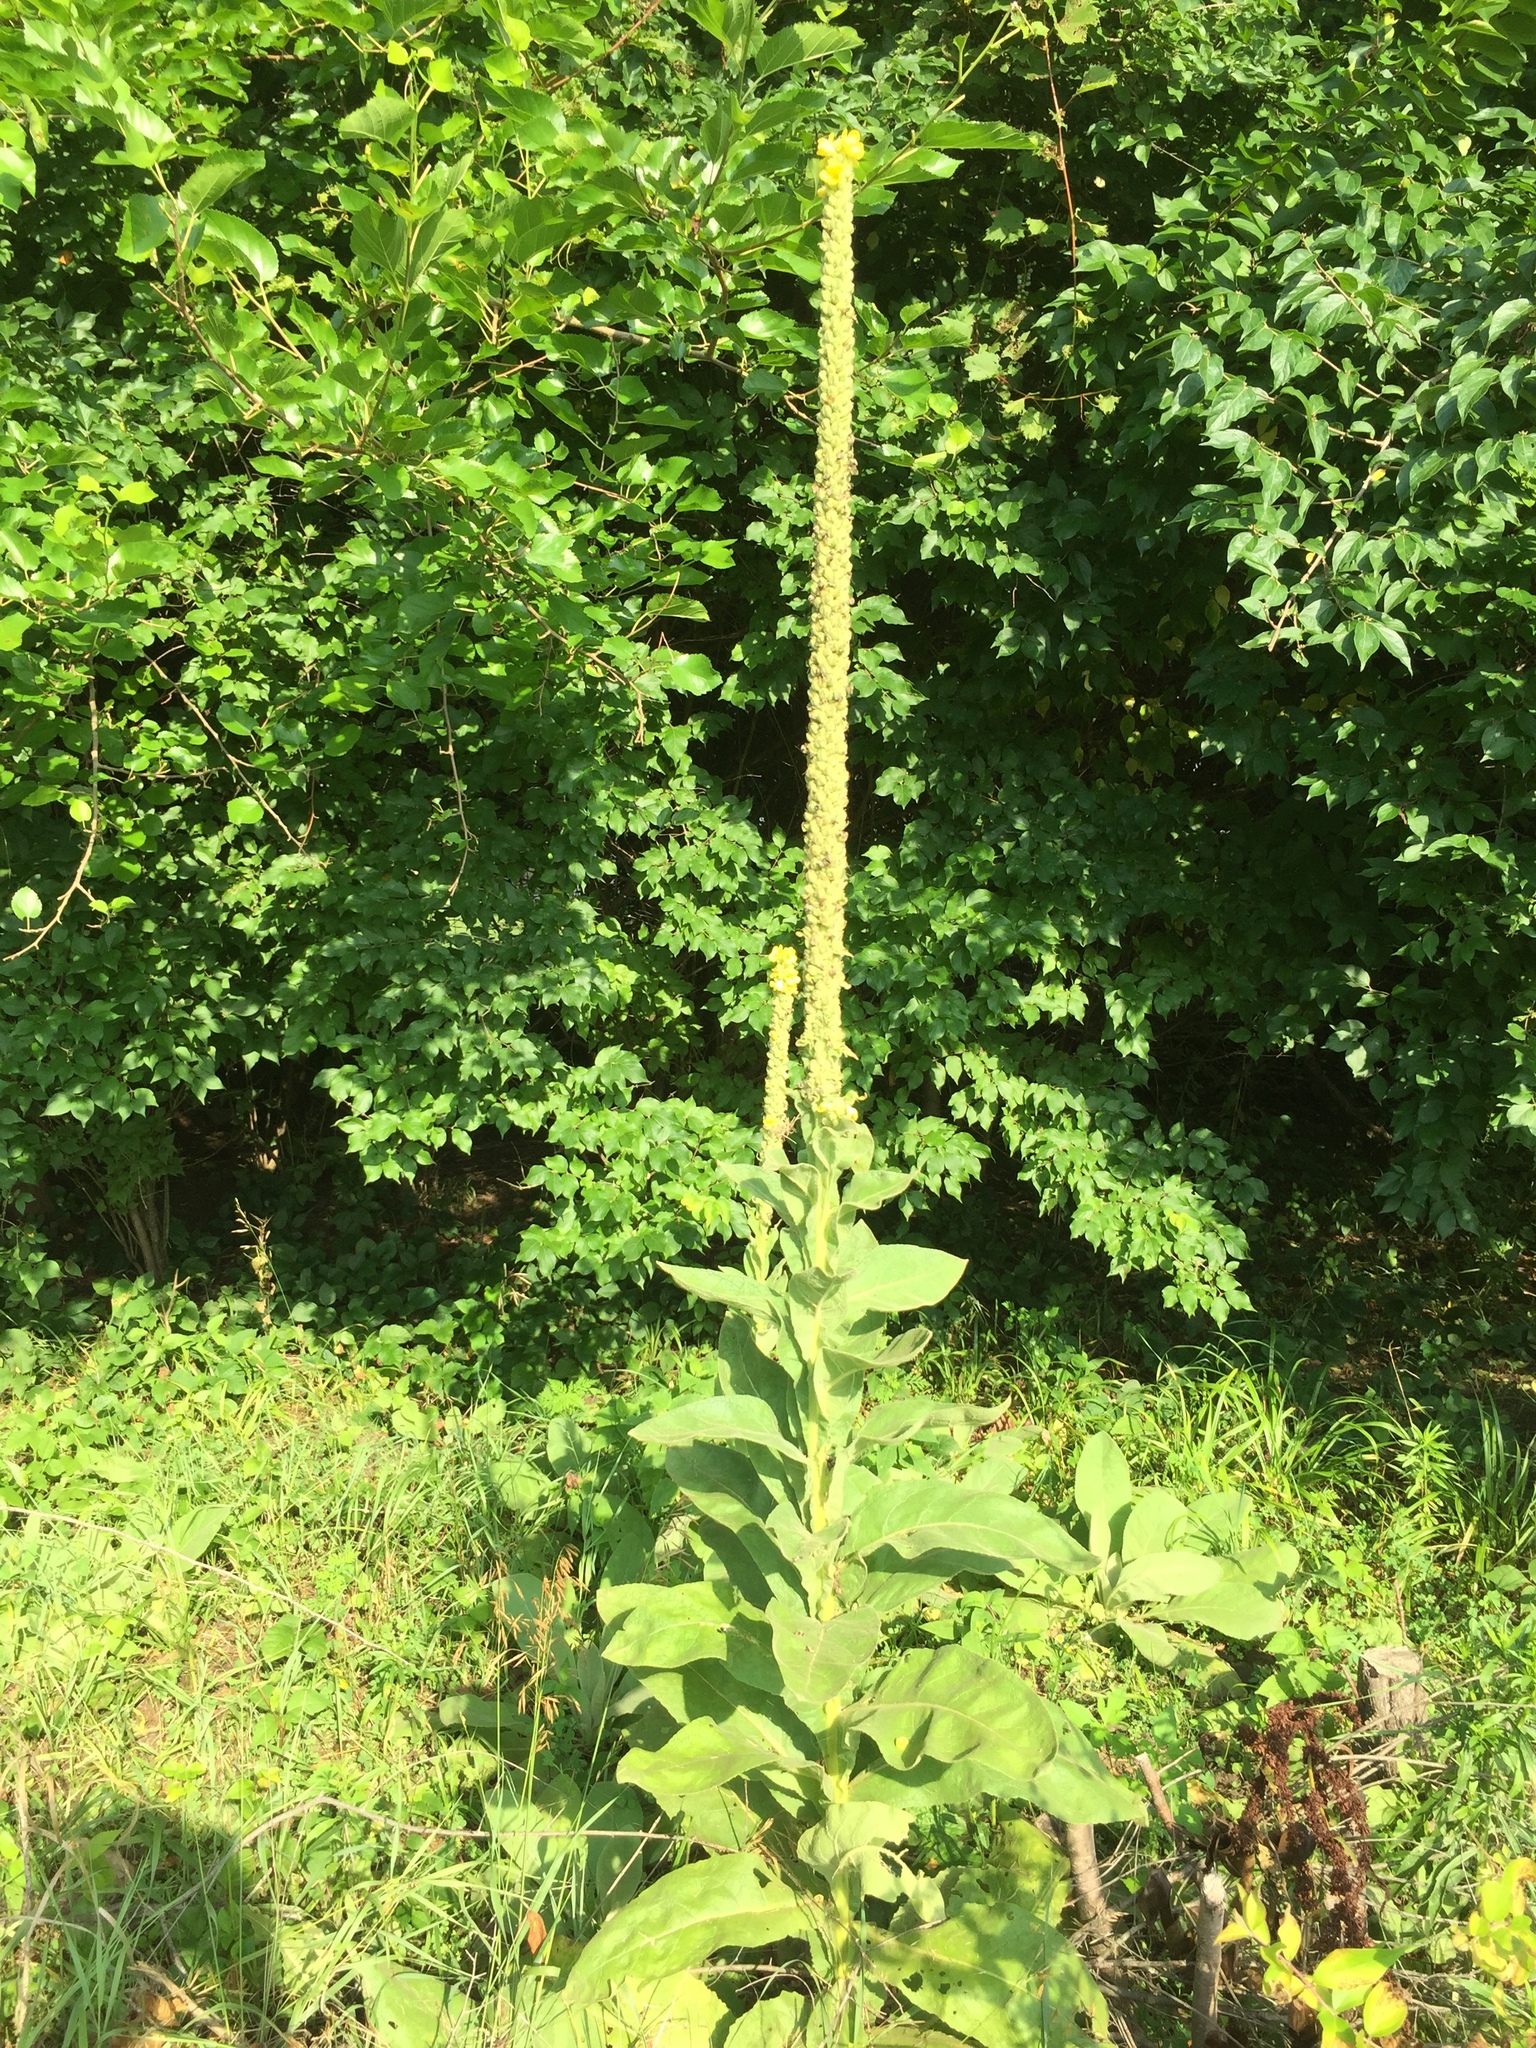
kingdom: Plantae
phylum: Tracheophyta
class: Magnoliopsida
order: Lamiales
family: Scrophulariaceae
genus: Verbascum
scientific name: Verbascum thapsus
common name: Common mullein
